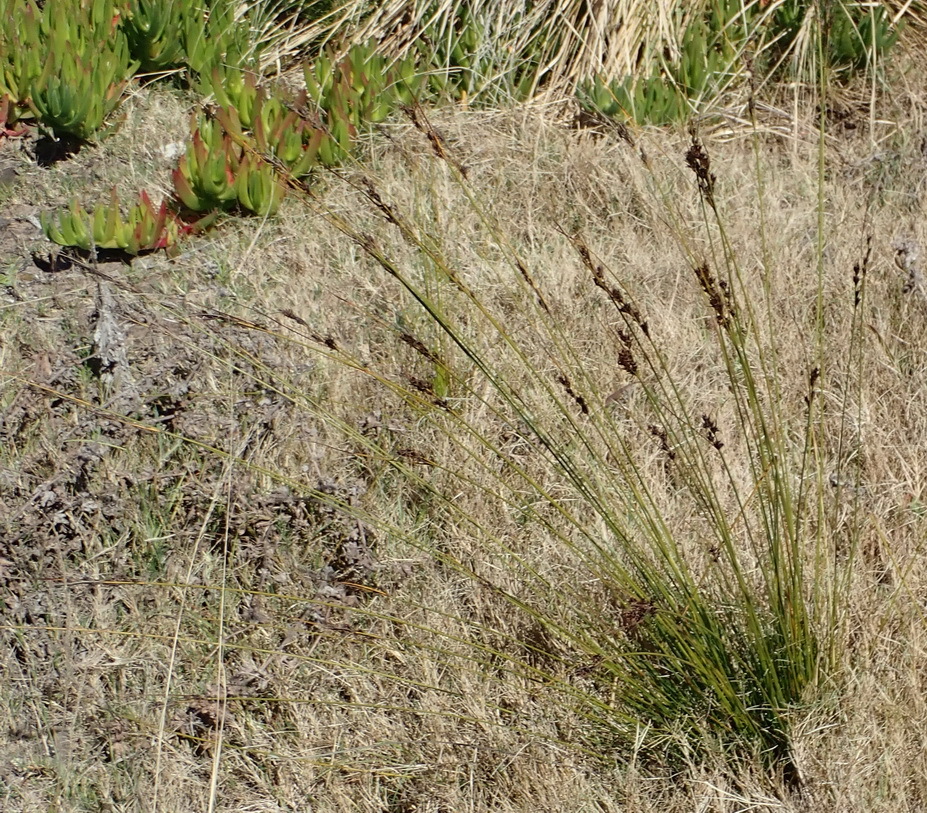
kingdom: Plantae
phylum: Tracheophyta
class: Liliopsida
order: Poales
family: Cyperaceae
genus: Schoenus
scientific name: Schoenus cuspidatus
